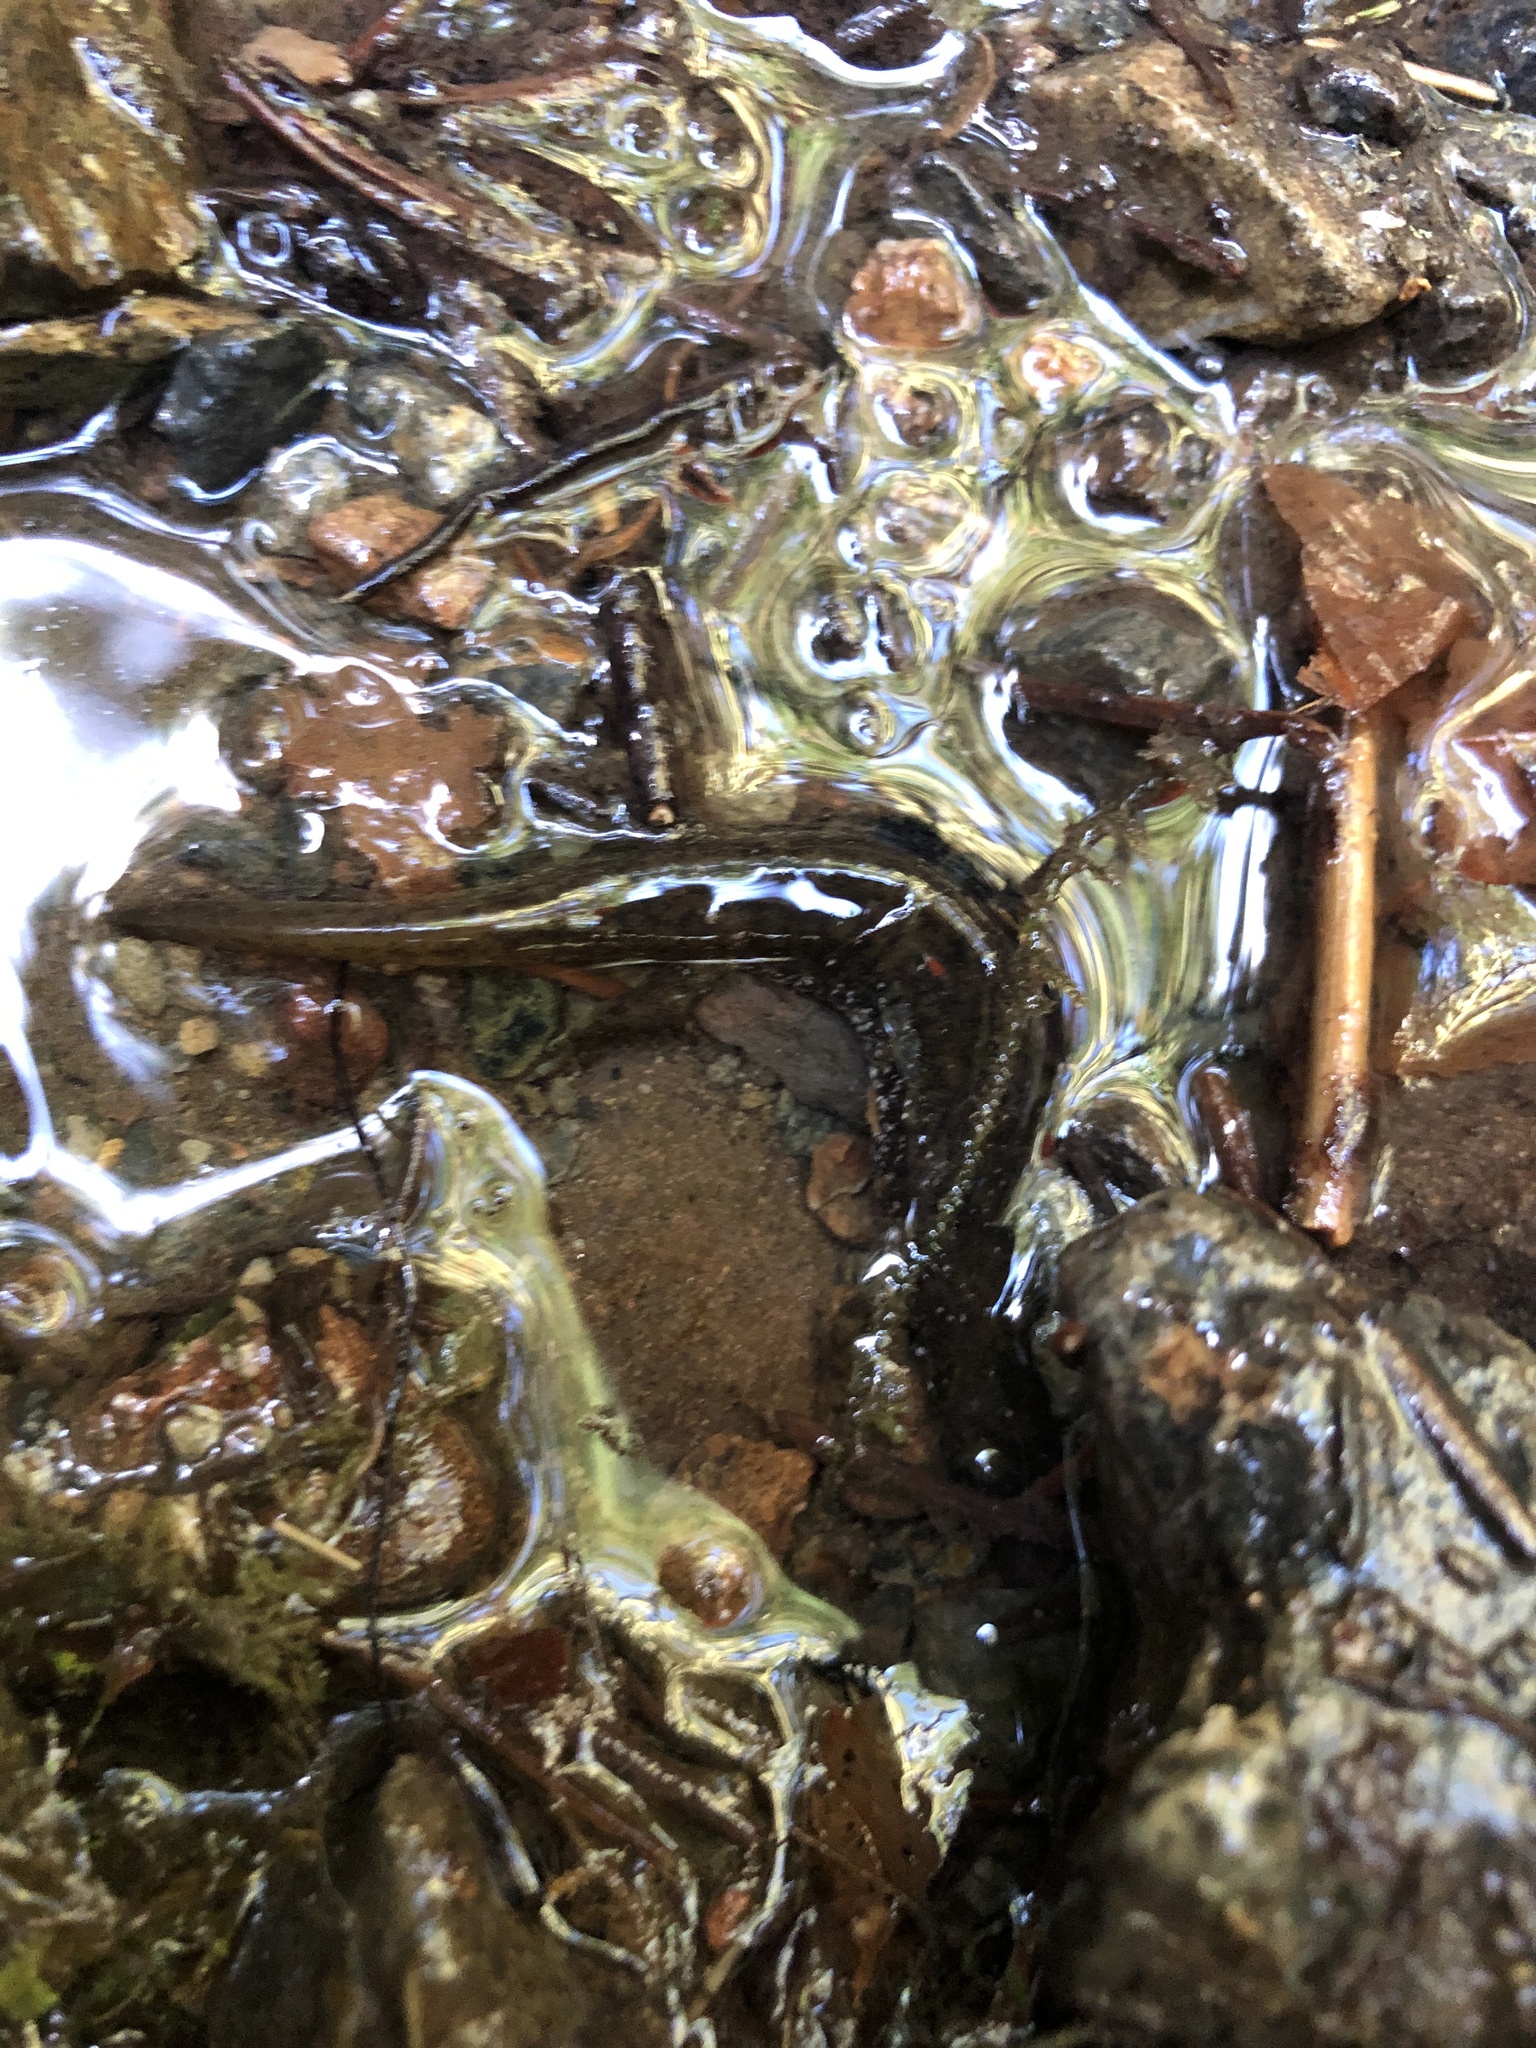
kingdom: Animalia
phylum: Chordata
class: Amphibia
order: Caudata
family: Rhyacotritonidae
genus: Rhyacotriton
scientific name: Rhyacotriton variegatus
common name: Southern torrent salamander
